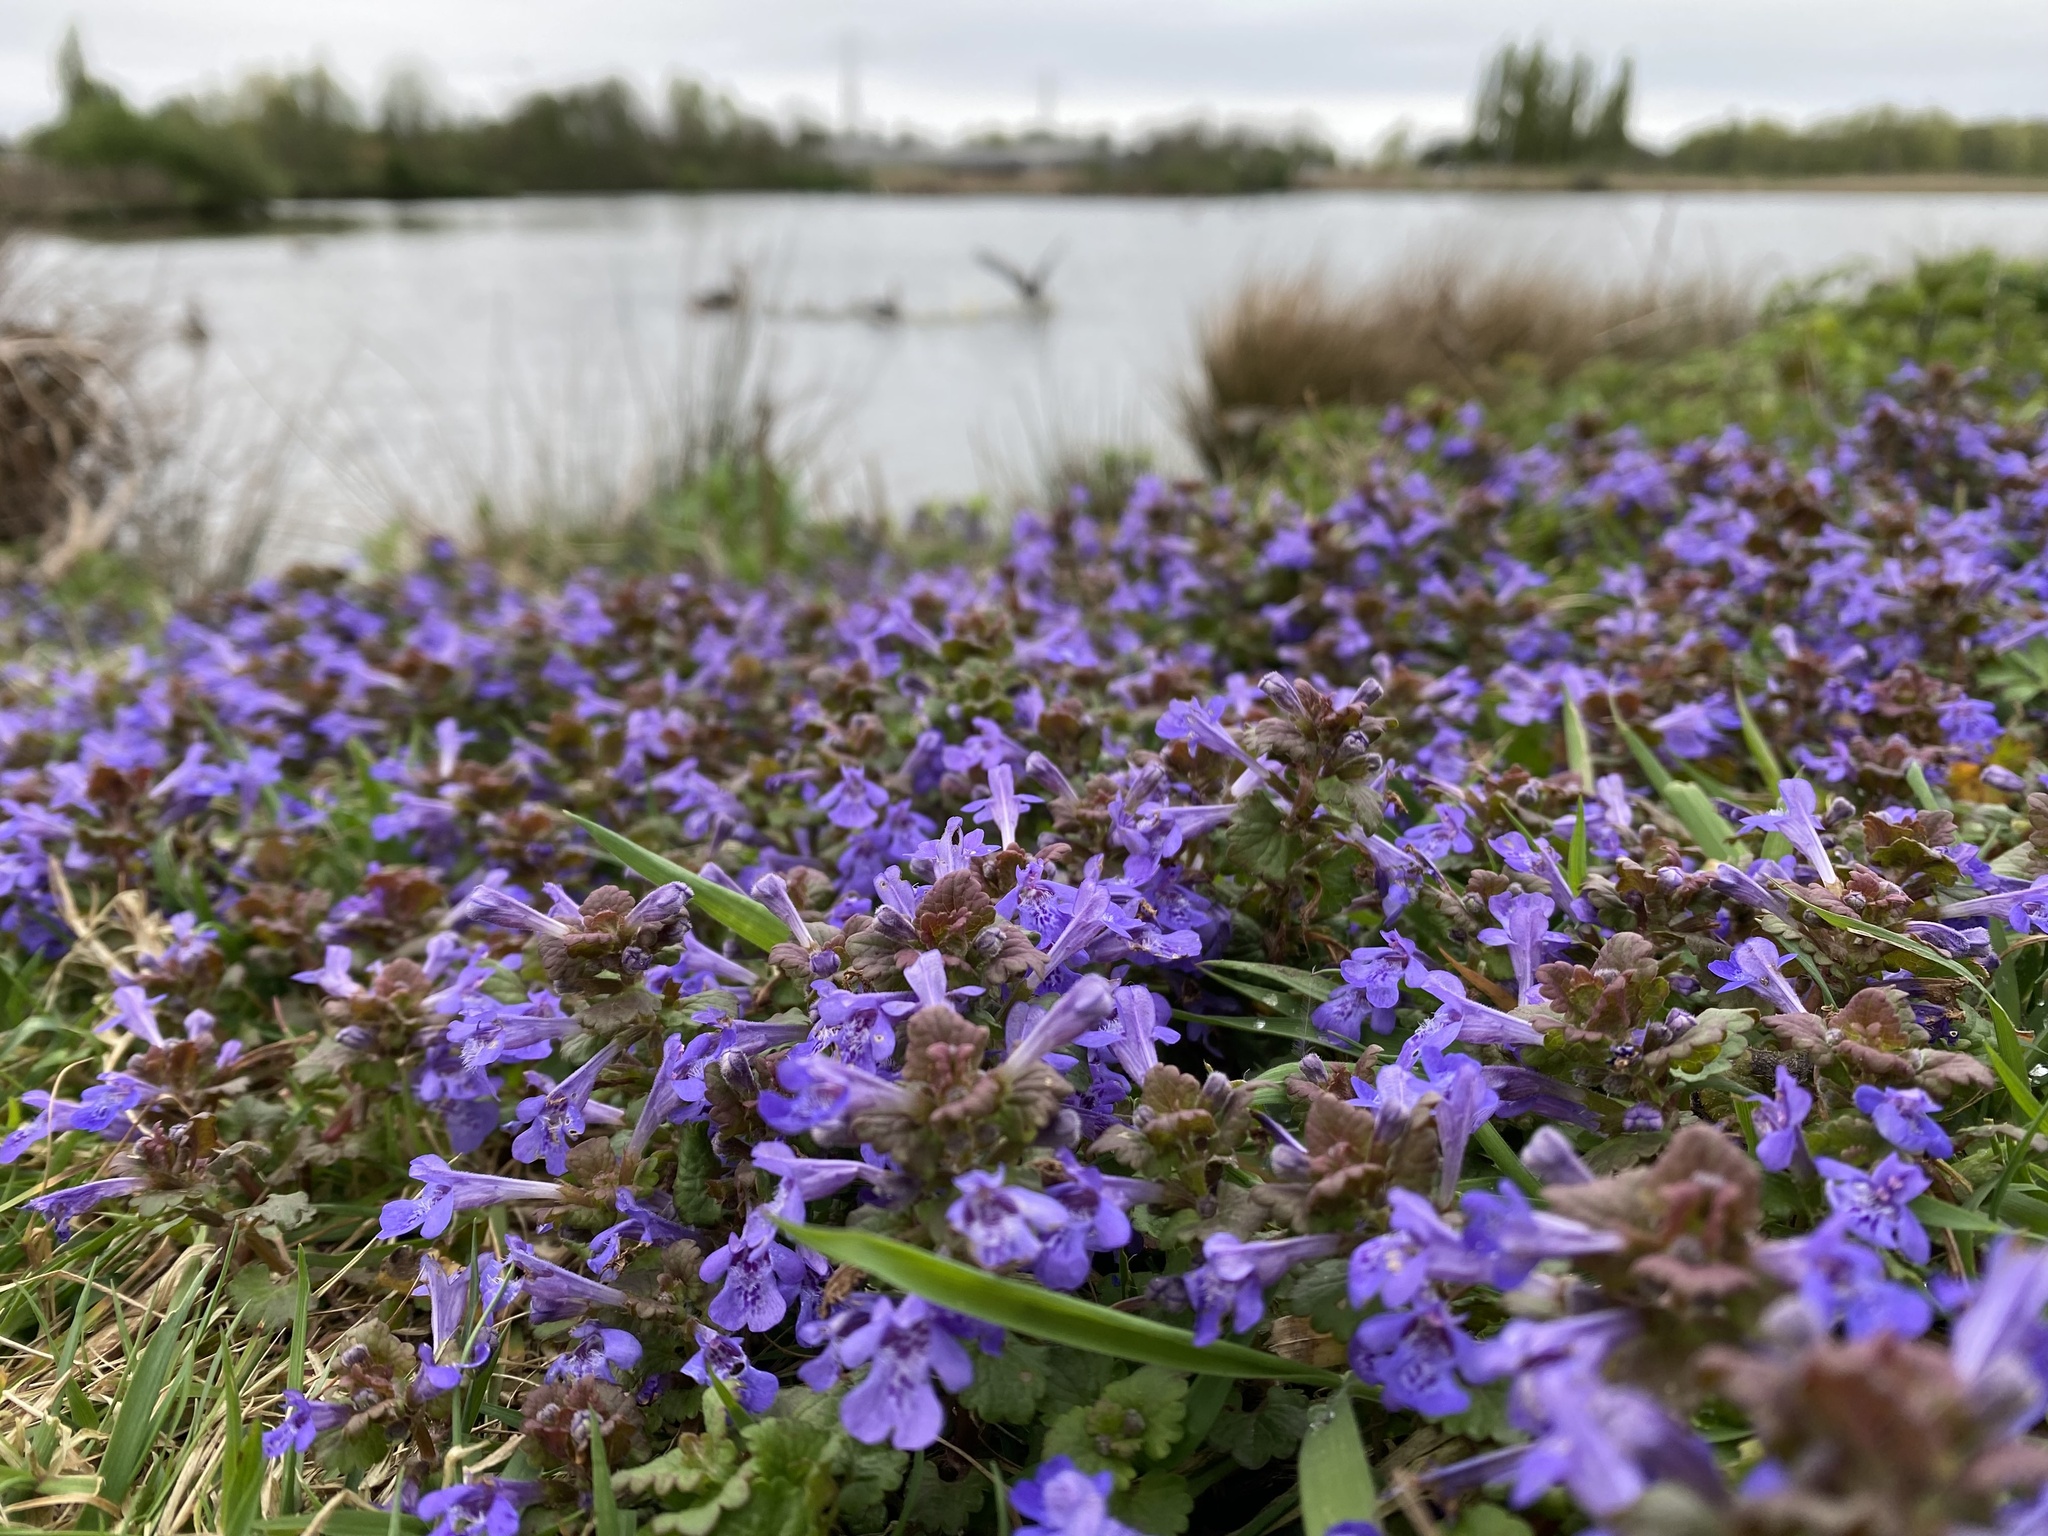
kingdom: Plantae
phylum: Tracheophyta
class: Magnoliopsida
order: Lamiales
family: Lamiaceae
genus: Glechoma
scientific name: Glechoma hederacea
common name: Ground ivy
